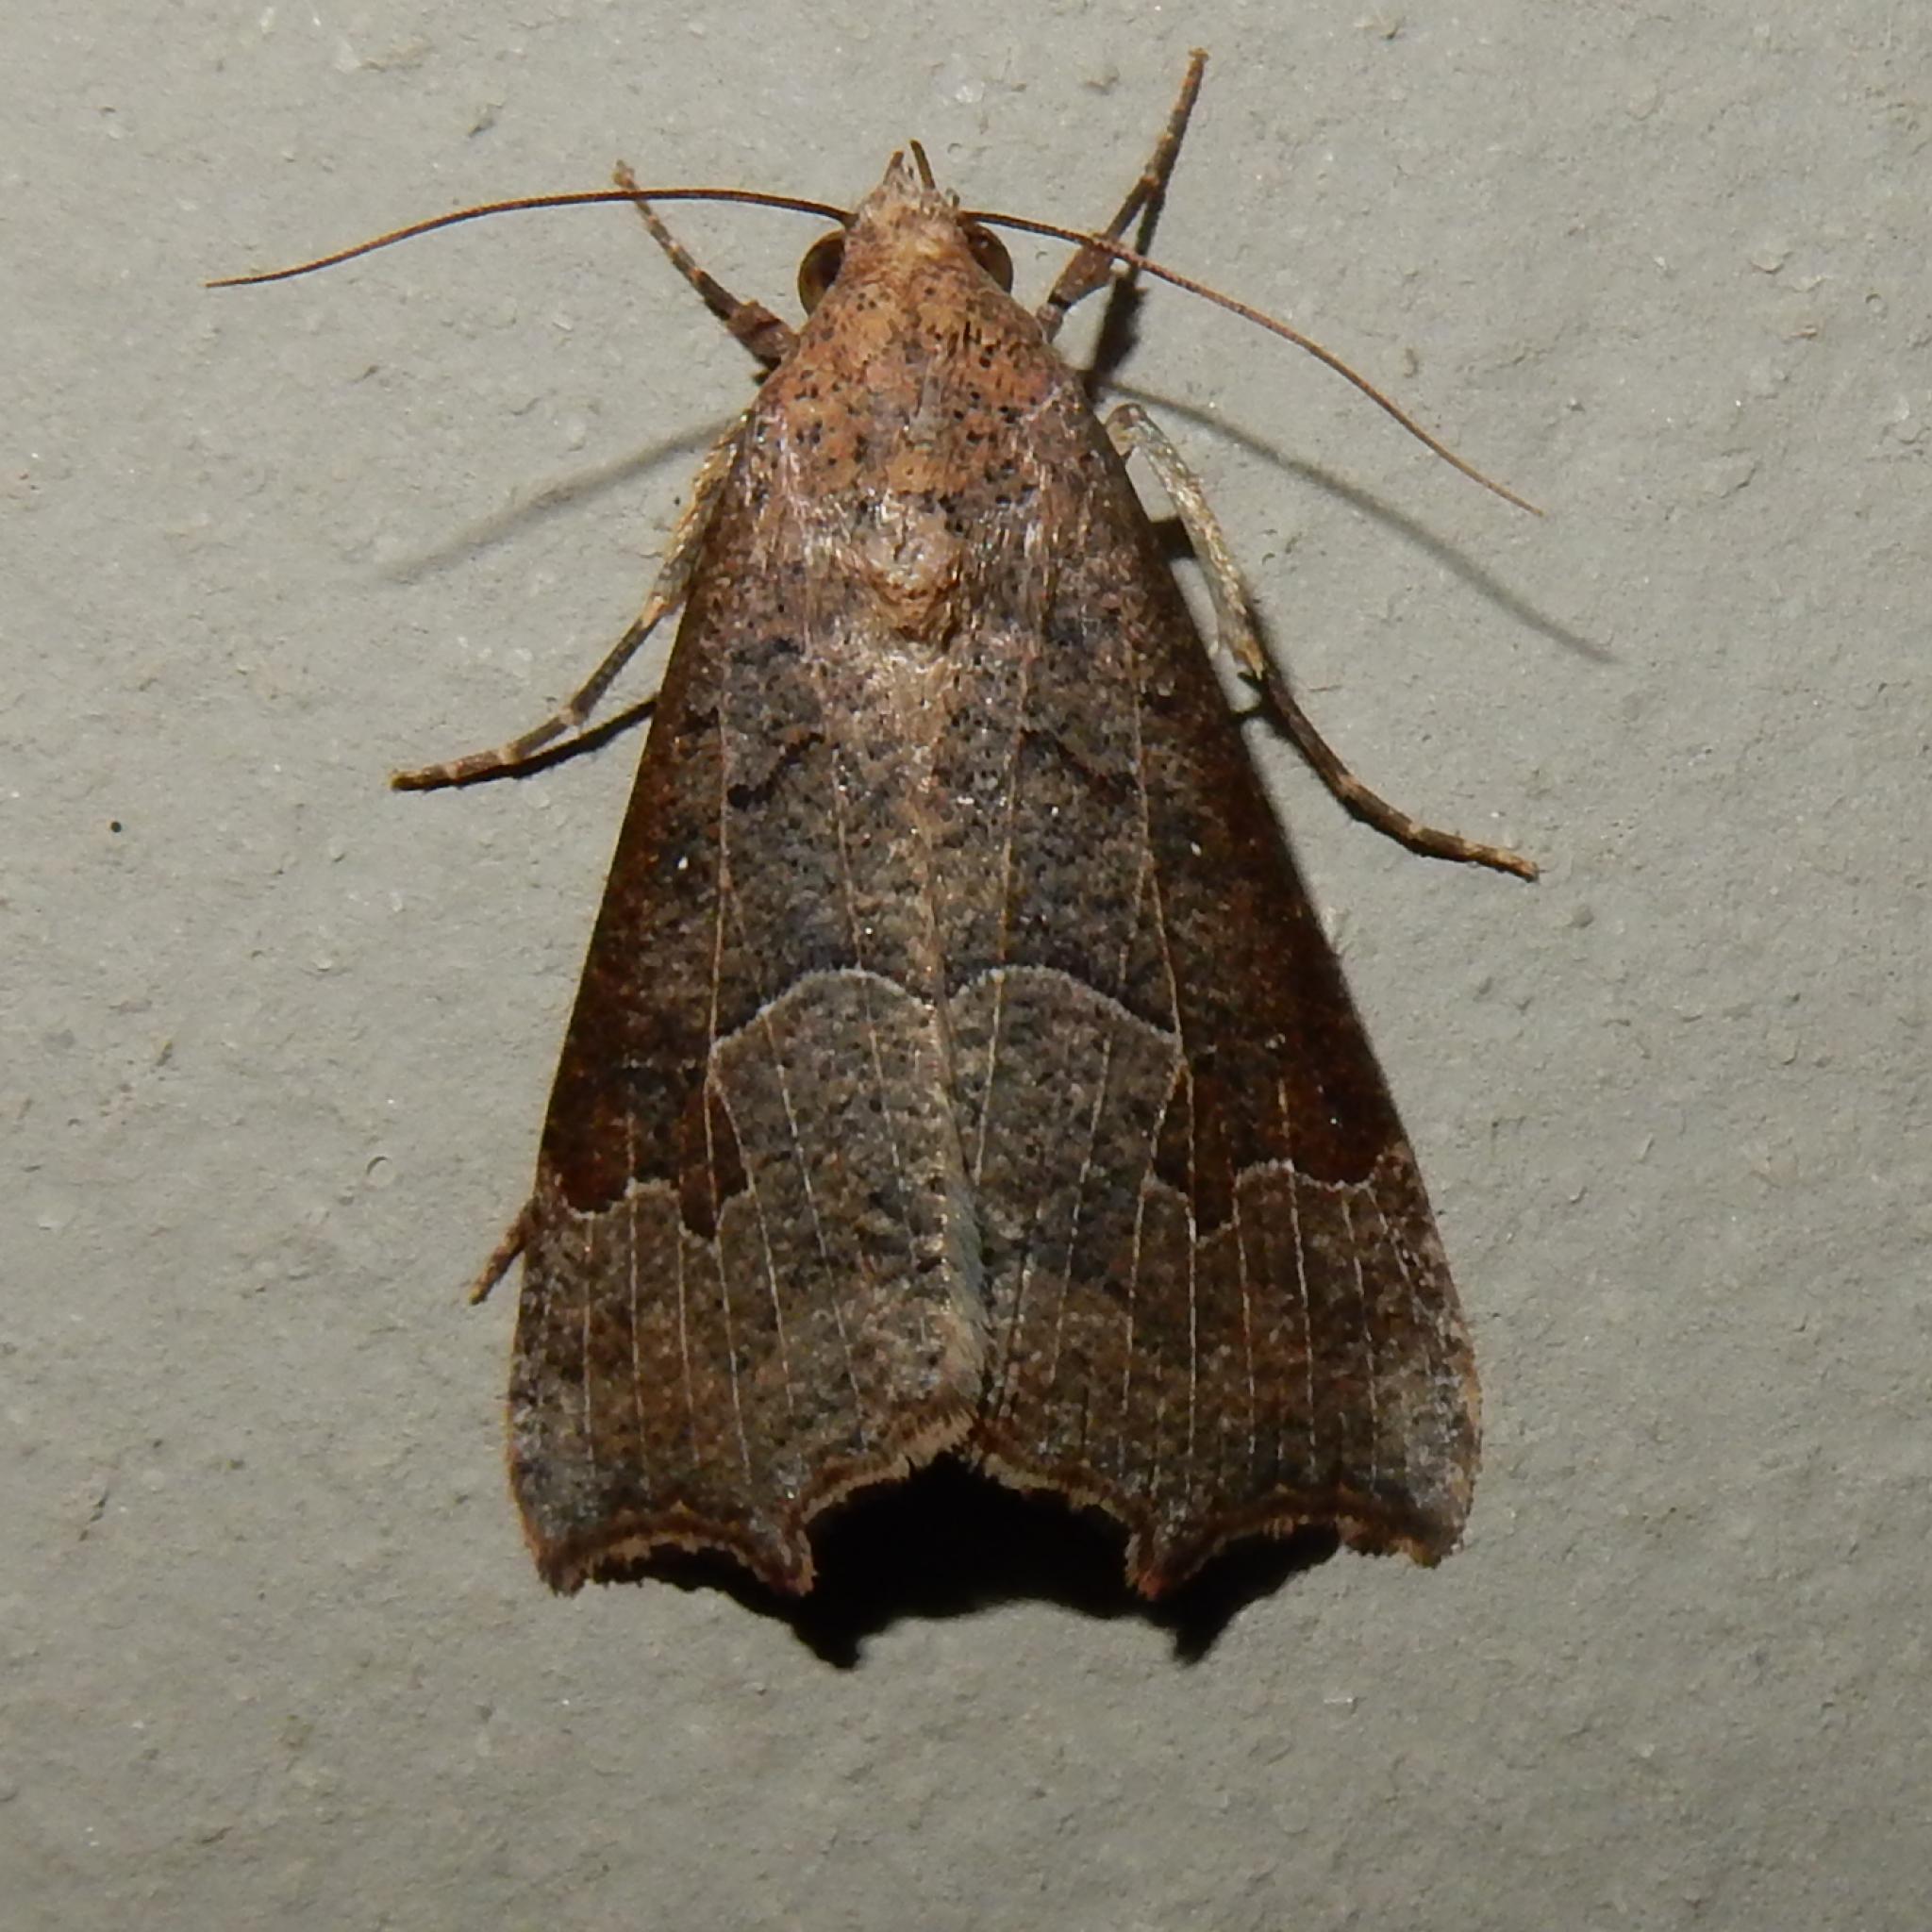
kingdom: Animalia
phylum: Arthropoda
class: Insecta
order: Lepidoptera
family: Erebidae
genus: Anomis
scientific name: Anomis sabulifera
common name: Angled gem
